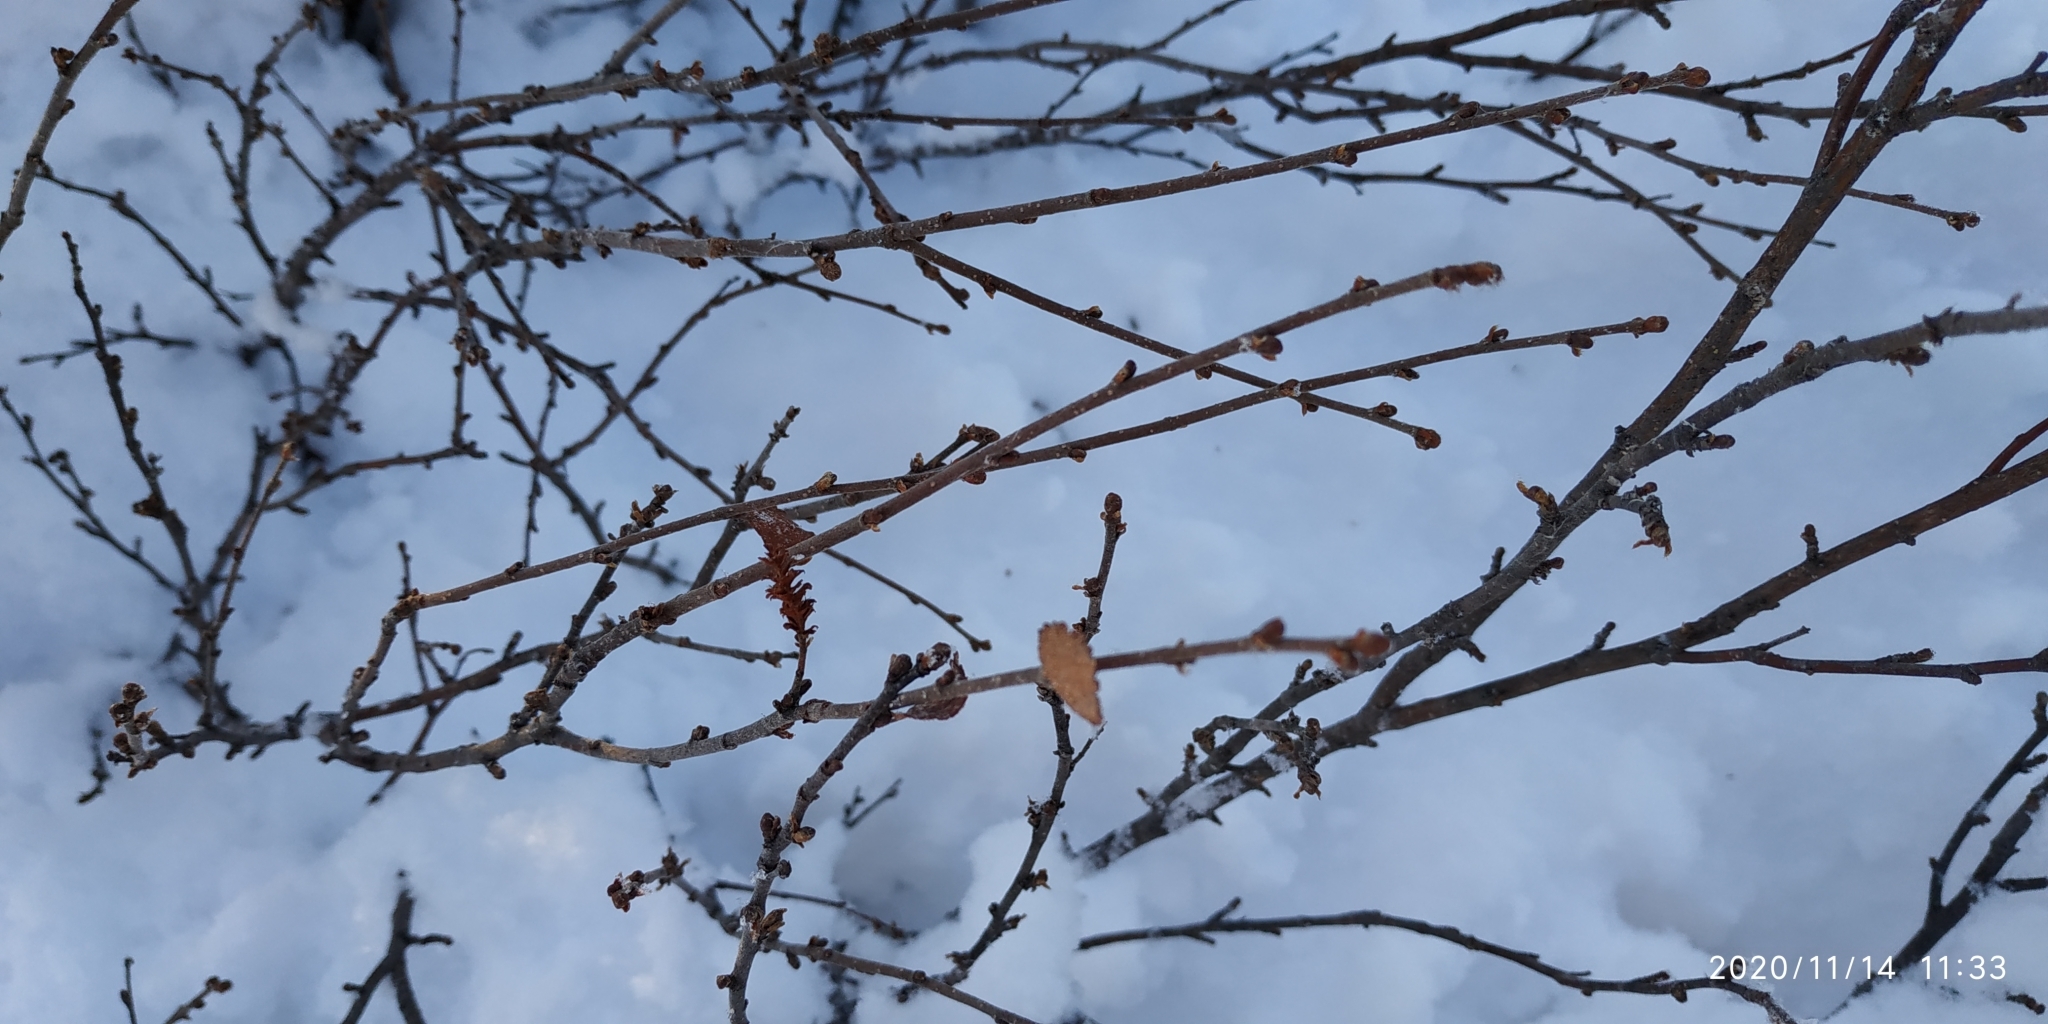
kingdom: Plantae
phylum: Tracheophyta
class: Magnoliopsida
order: Fagales
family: Betulaceae
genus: Betula
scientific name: Betula nana
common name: Arctic dwarf birch
